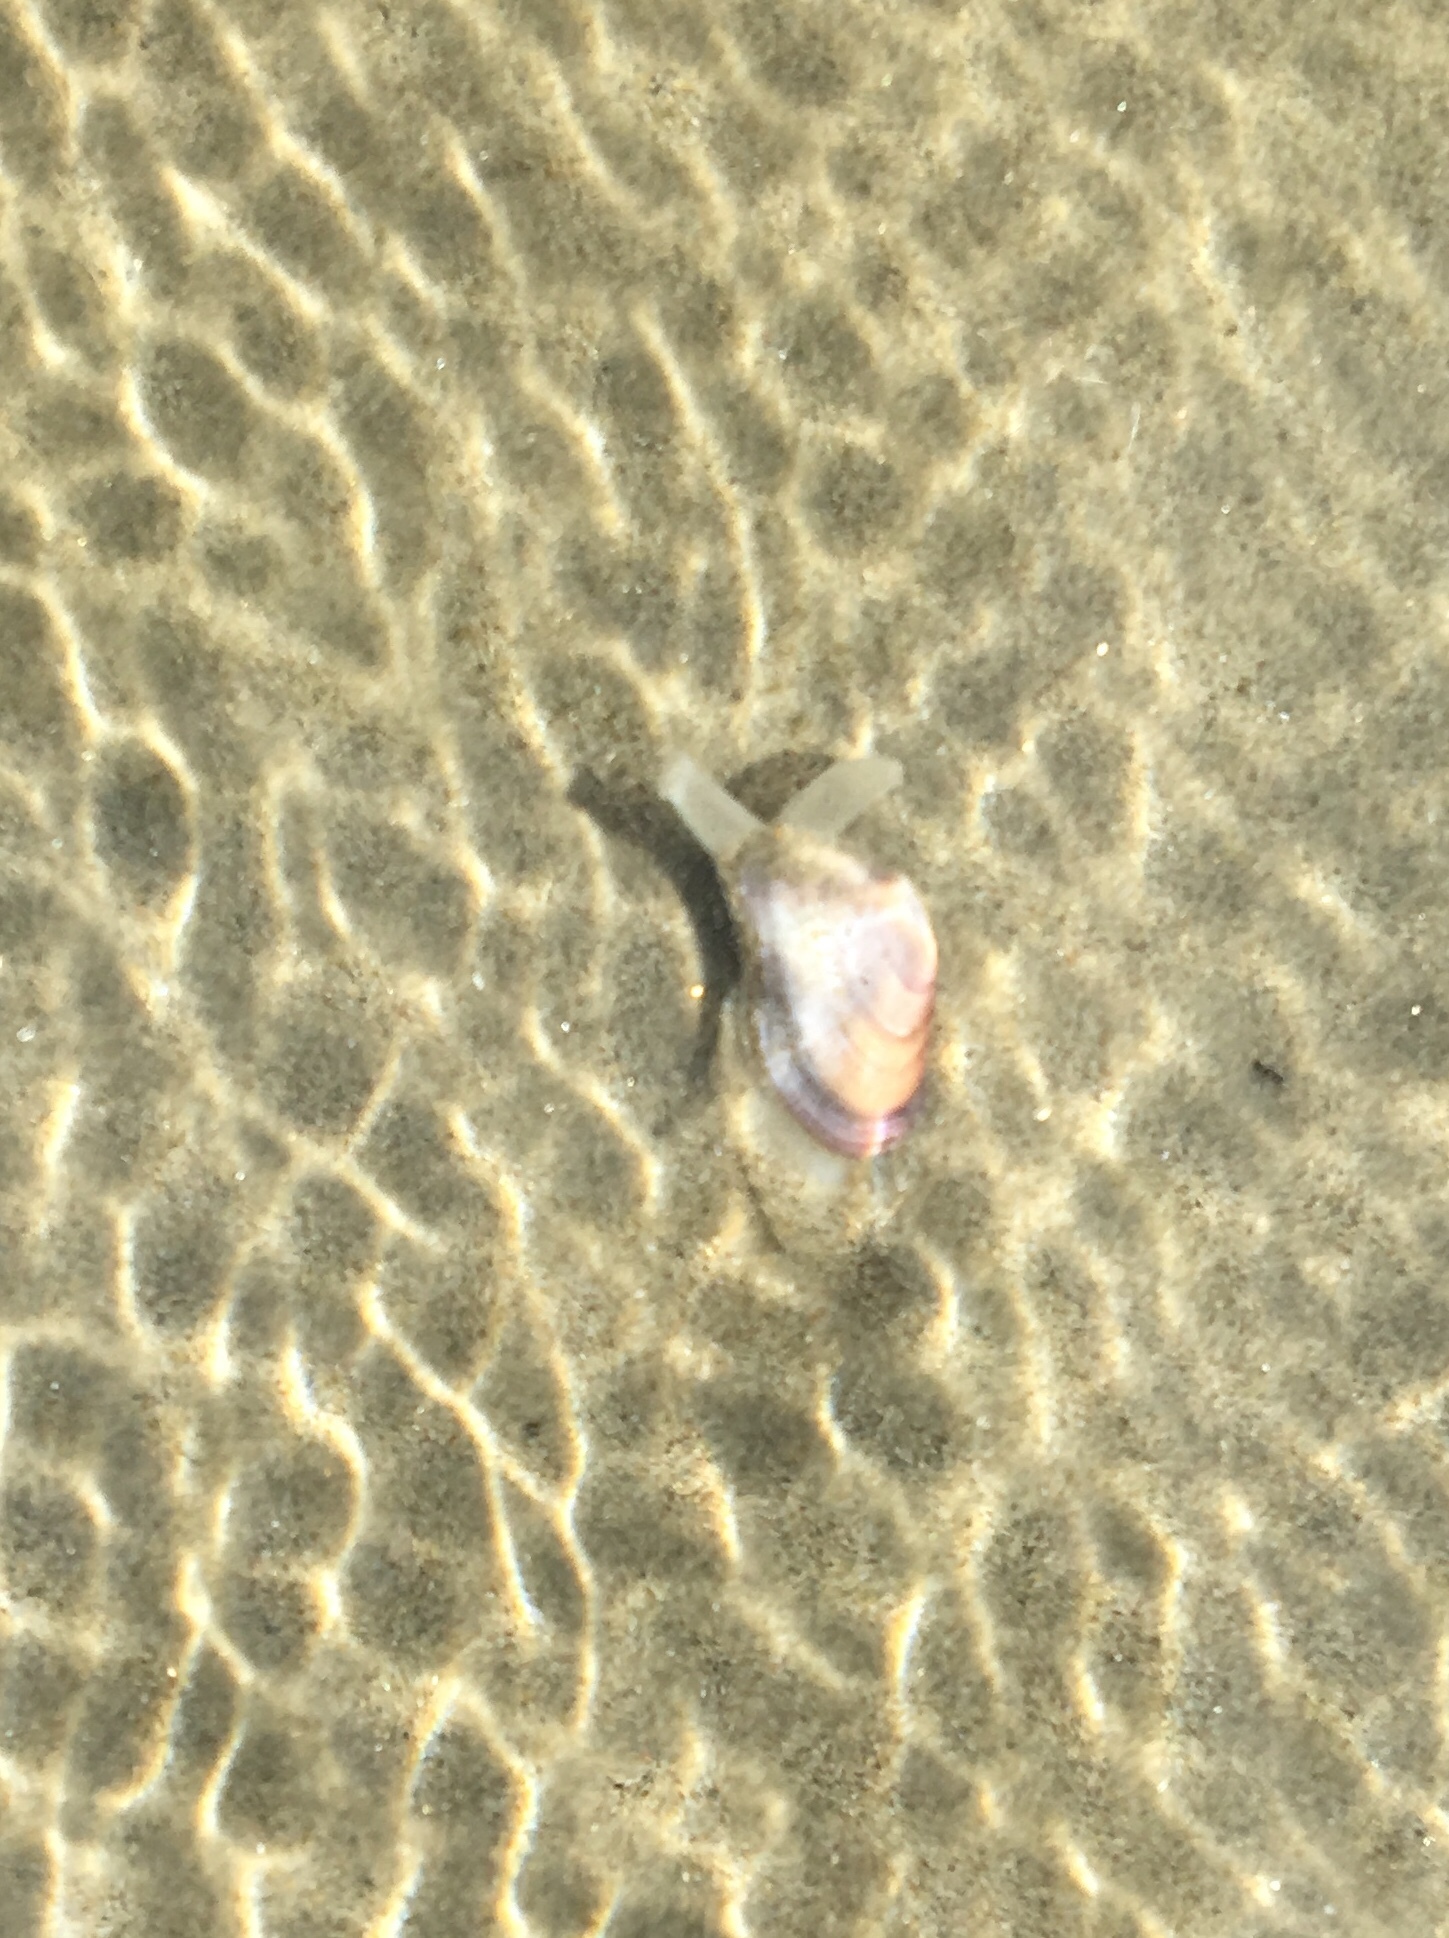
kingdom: Animalia
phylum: Mollusca
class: Bivalvia
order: Cardiida
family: Donacidae
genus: Donax
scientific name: Donax gouldii
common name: Gould beanclam
